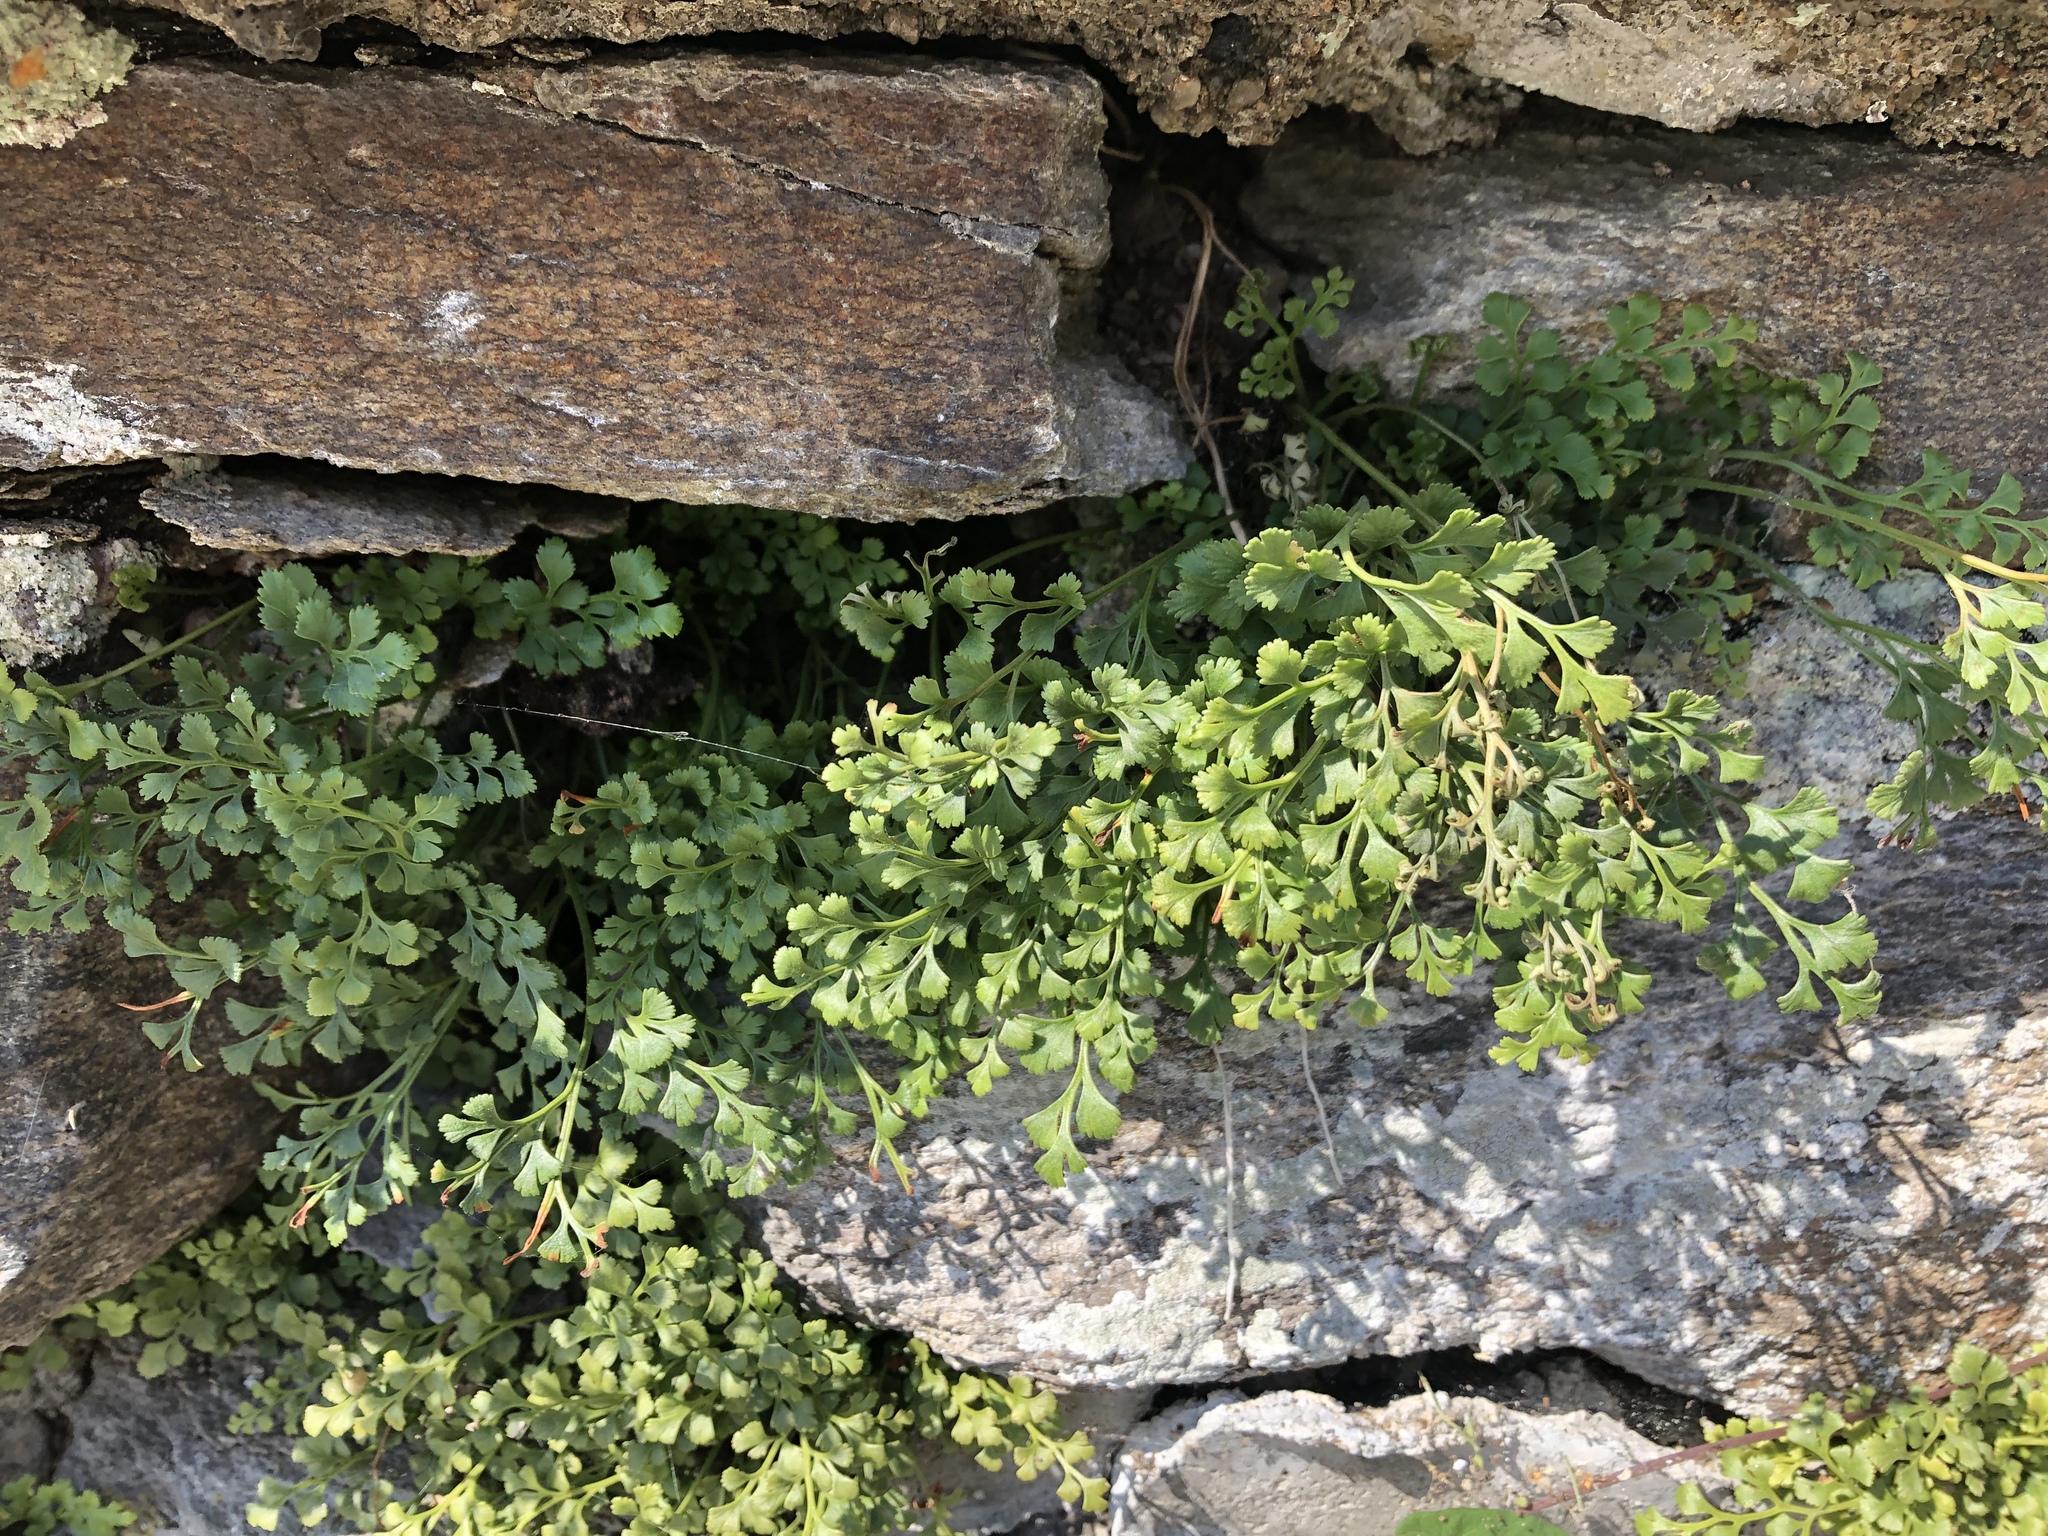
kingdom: Plantae
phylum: Tracheophyta
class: Polypodiopsida
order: Polypodiales
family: Aspleniaceae
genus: Asplenium
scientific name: Asplenium ruta-muraria
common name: Wall-rue
